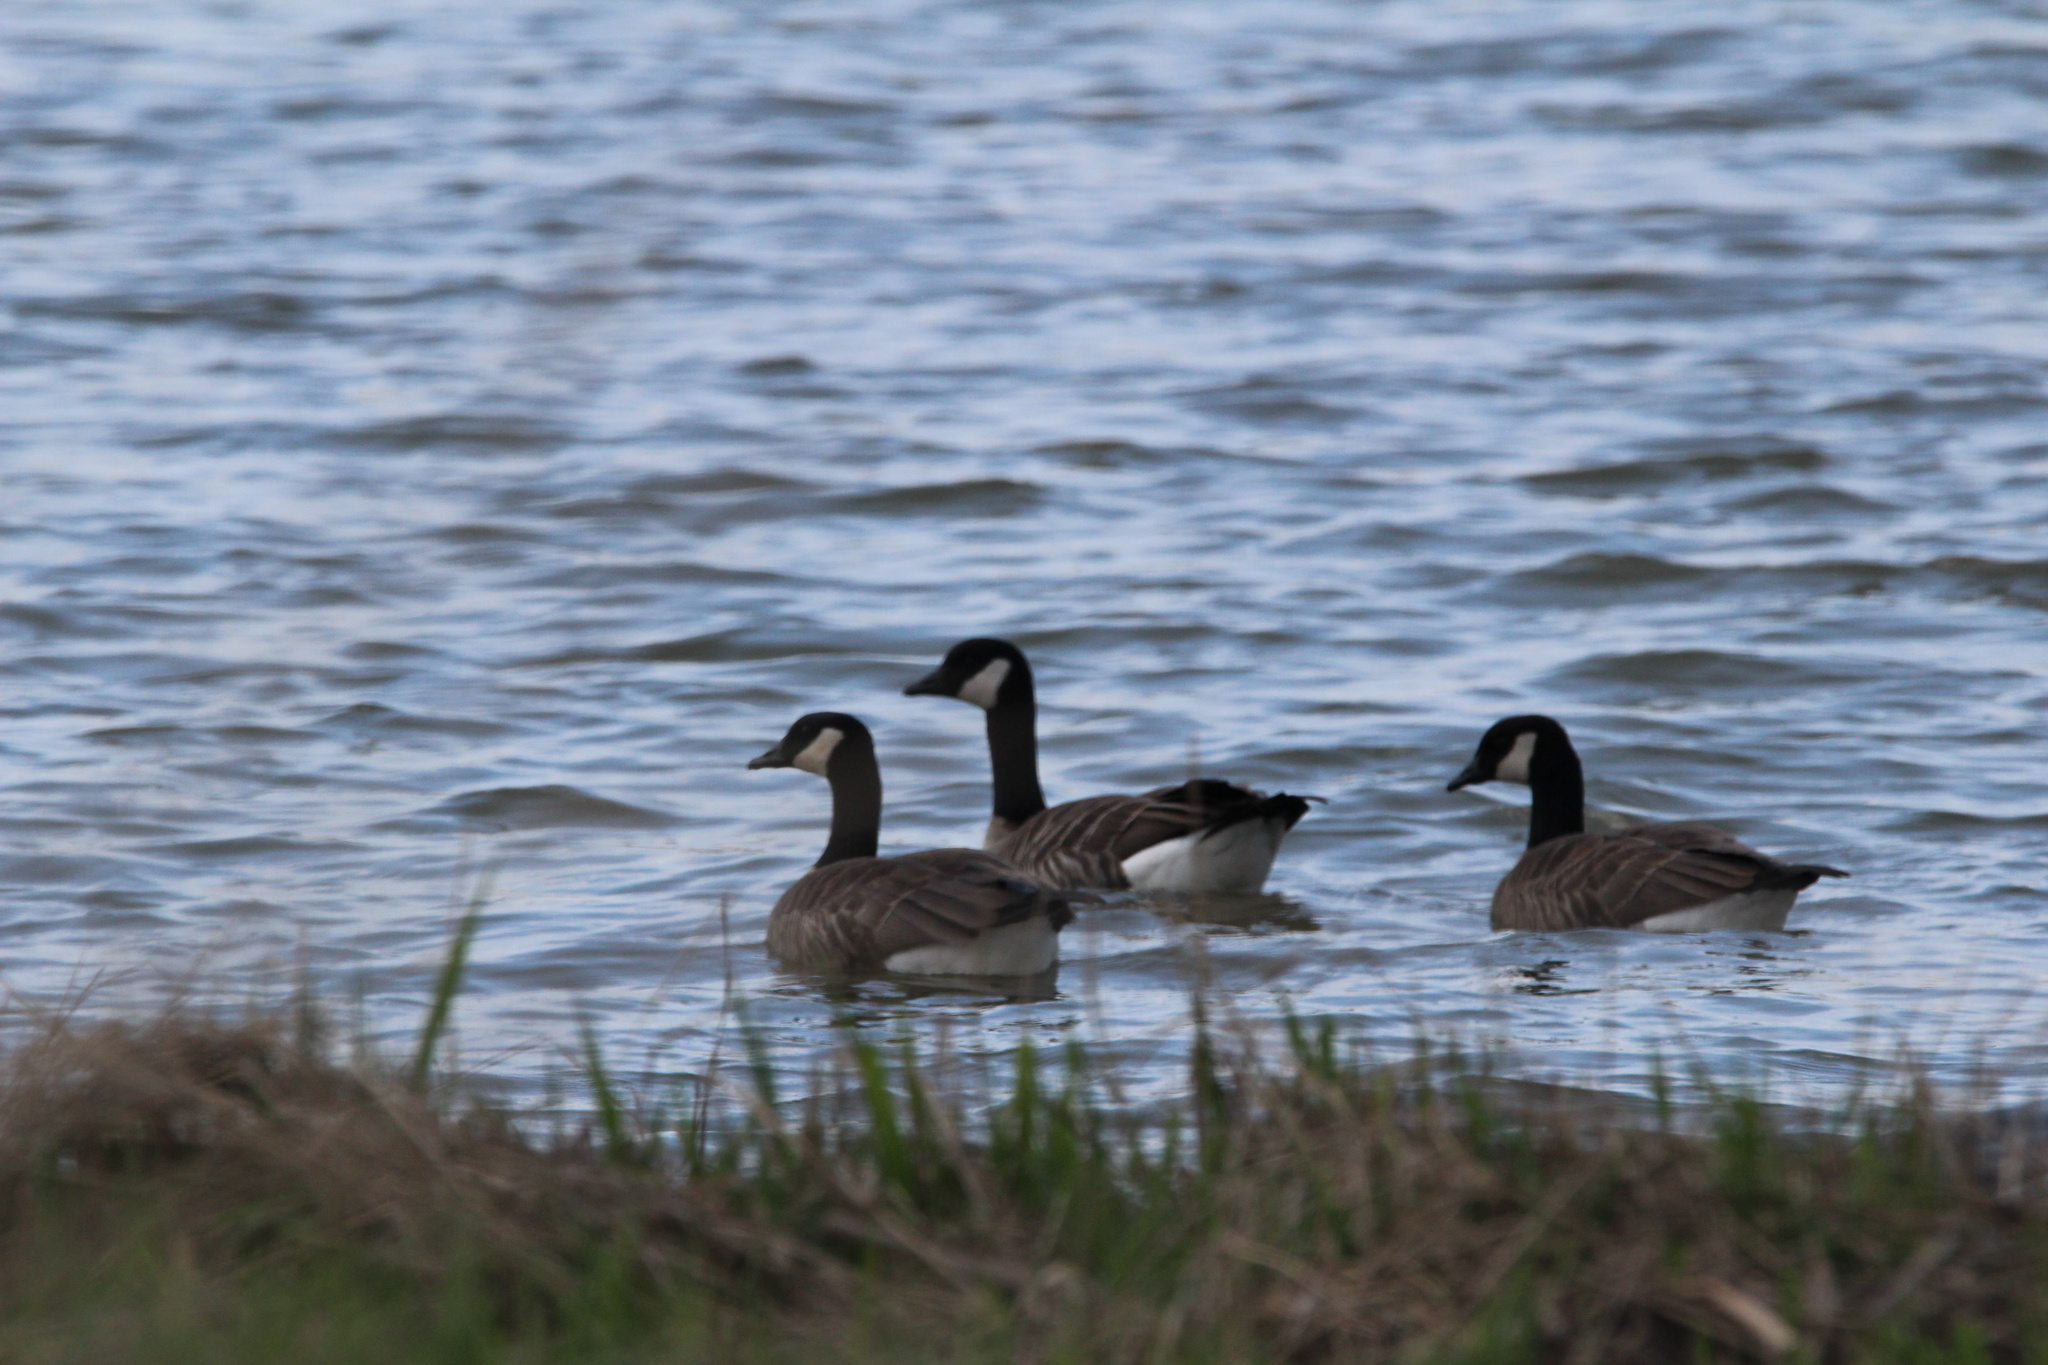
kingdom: Animalia
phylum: Chordata
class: Aves
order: Anseriformes
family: Anatidae
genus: Branta
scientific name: Branta canadensis
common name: Canada goose
